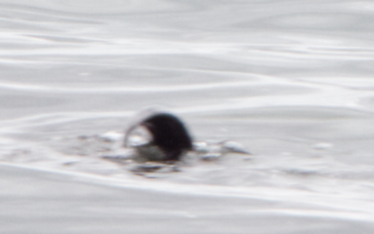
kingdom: Animalia
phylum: Chordata
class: Mammalia
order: Carnivora
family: Mustelidae
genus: Lontra
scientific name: Lontra canadensis
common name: North american river otter
